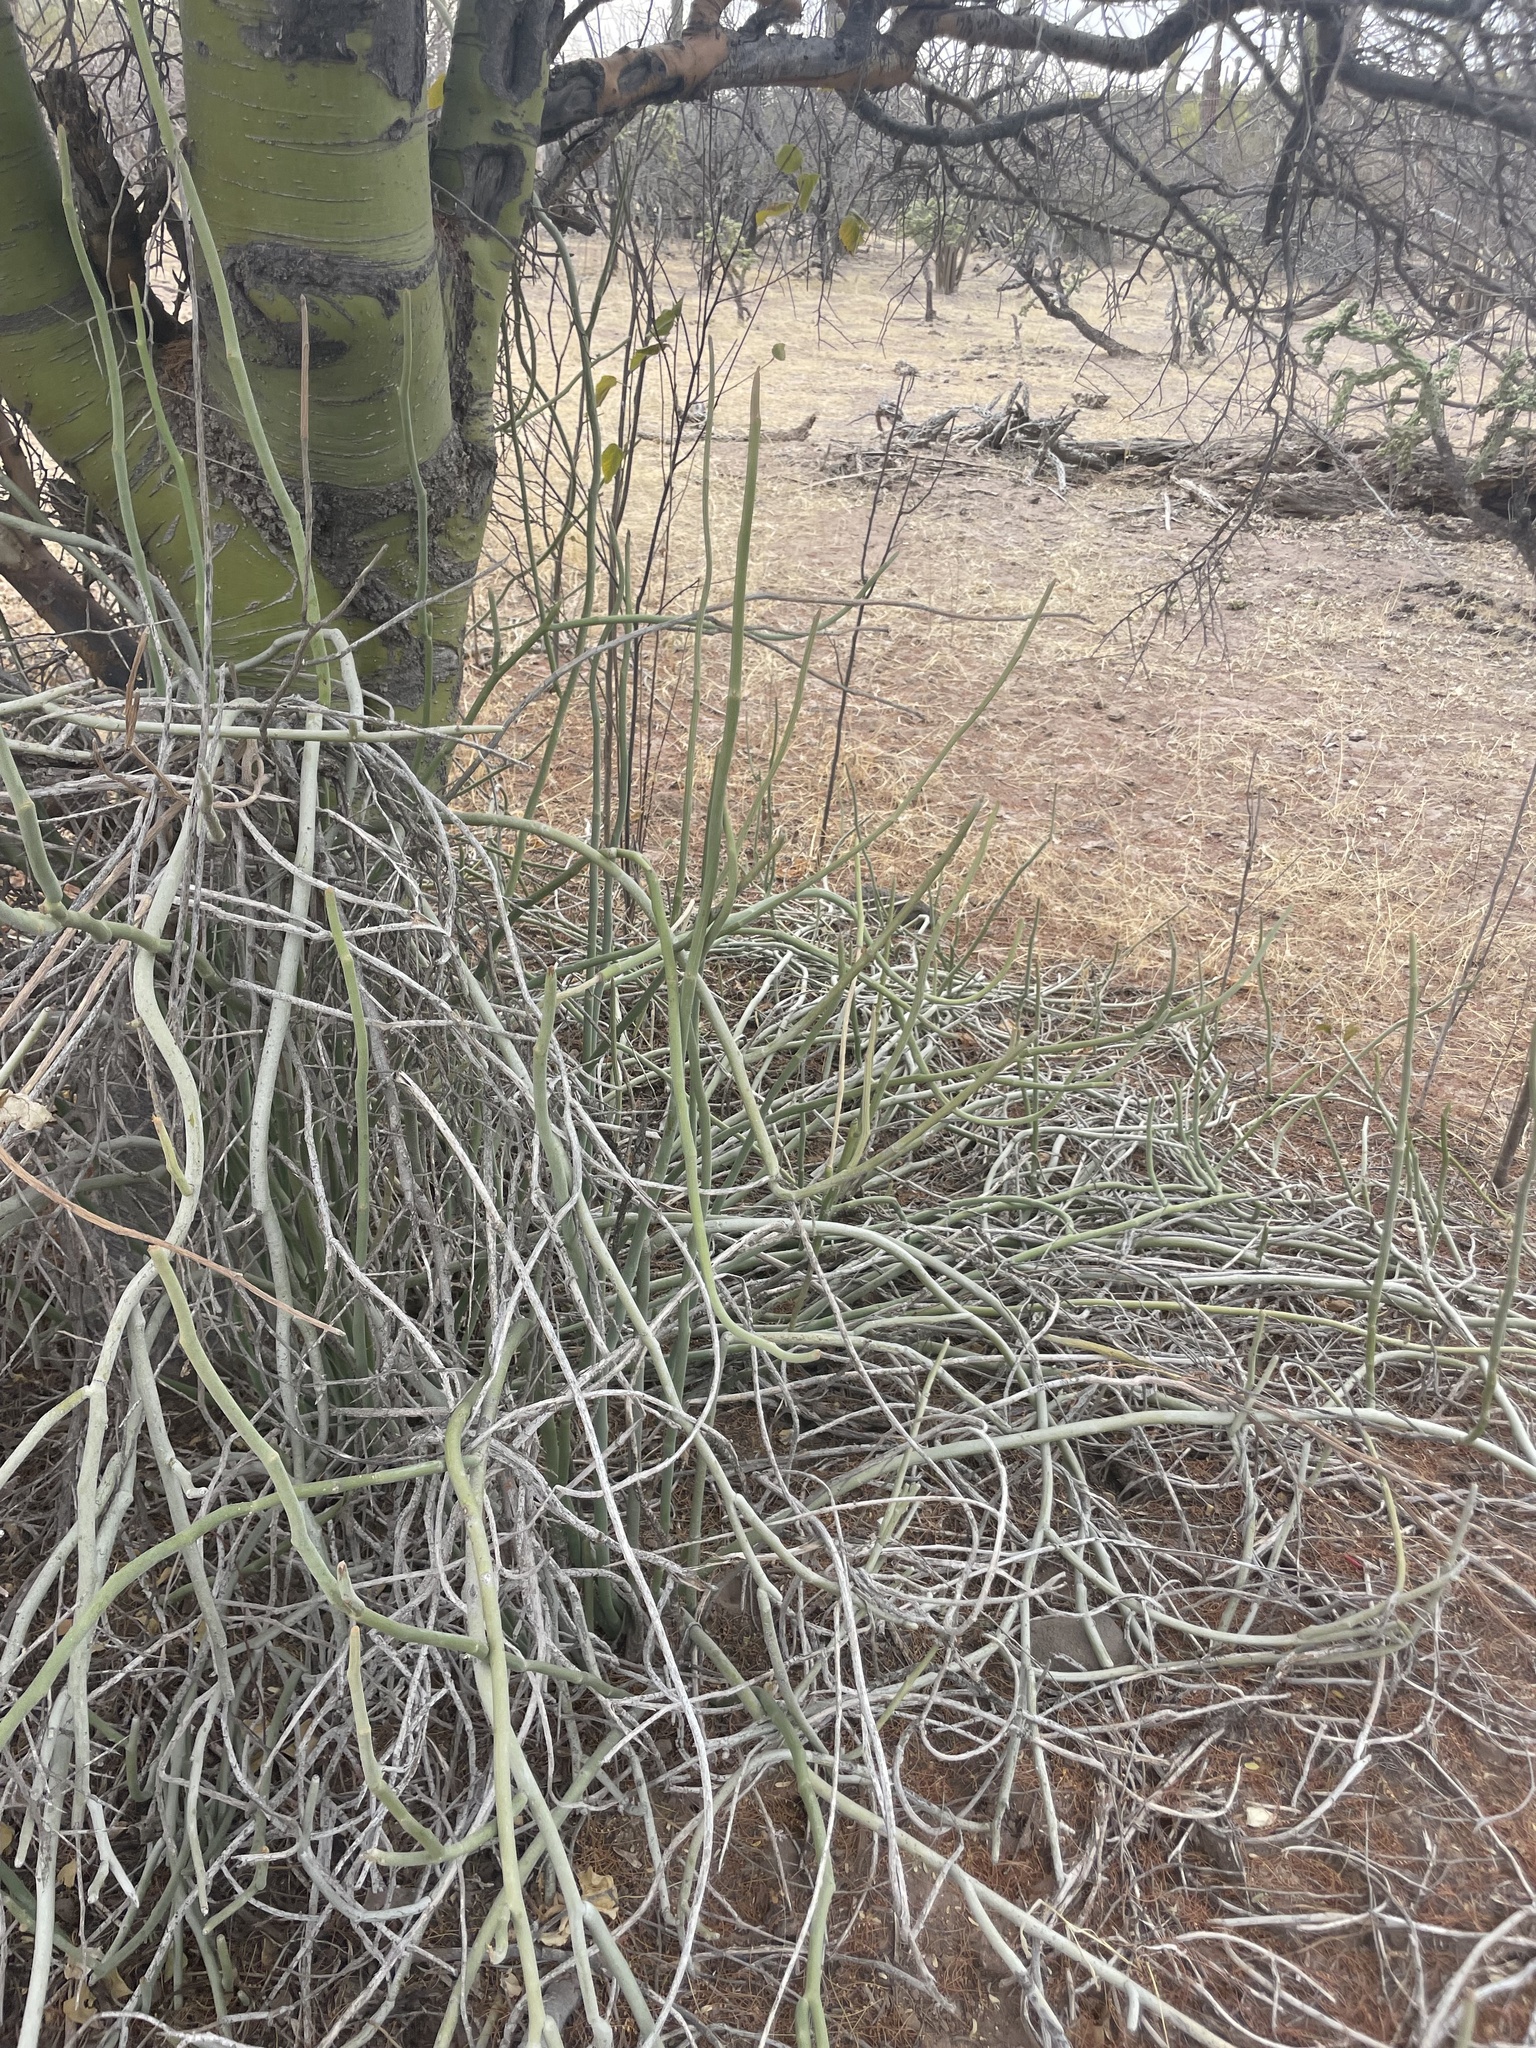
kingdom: Plantae
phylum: Tracheophyta
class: Magnoliopsida
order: Malpighiales
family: Euphorbiaceae
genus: Euphorbia
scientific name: Euphorbia lomelii
